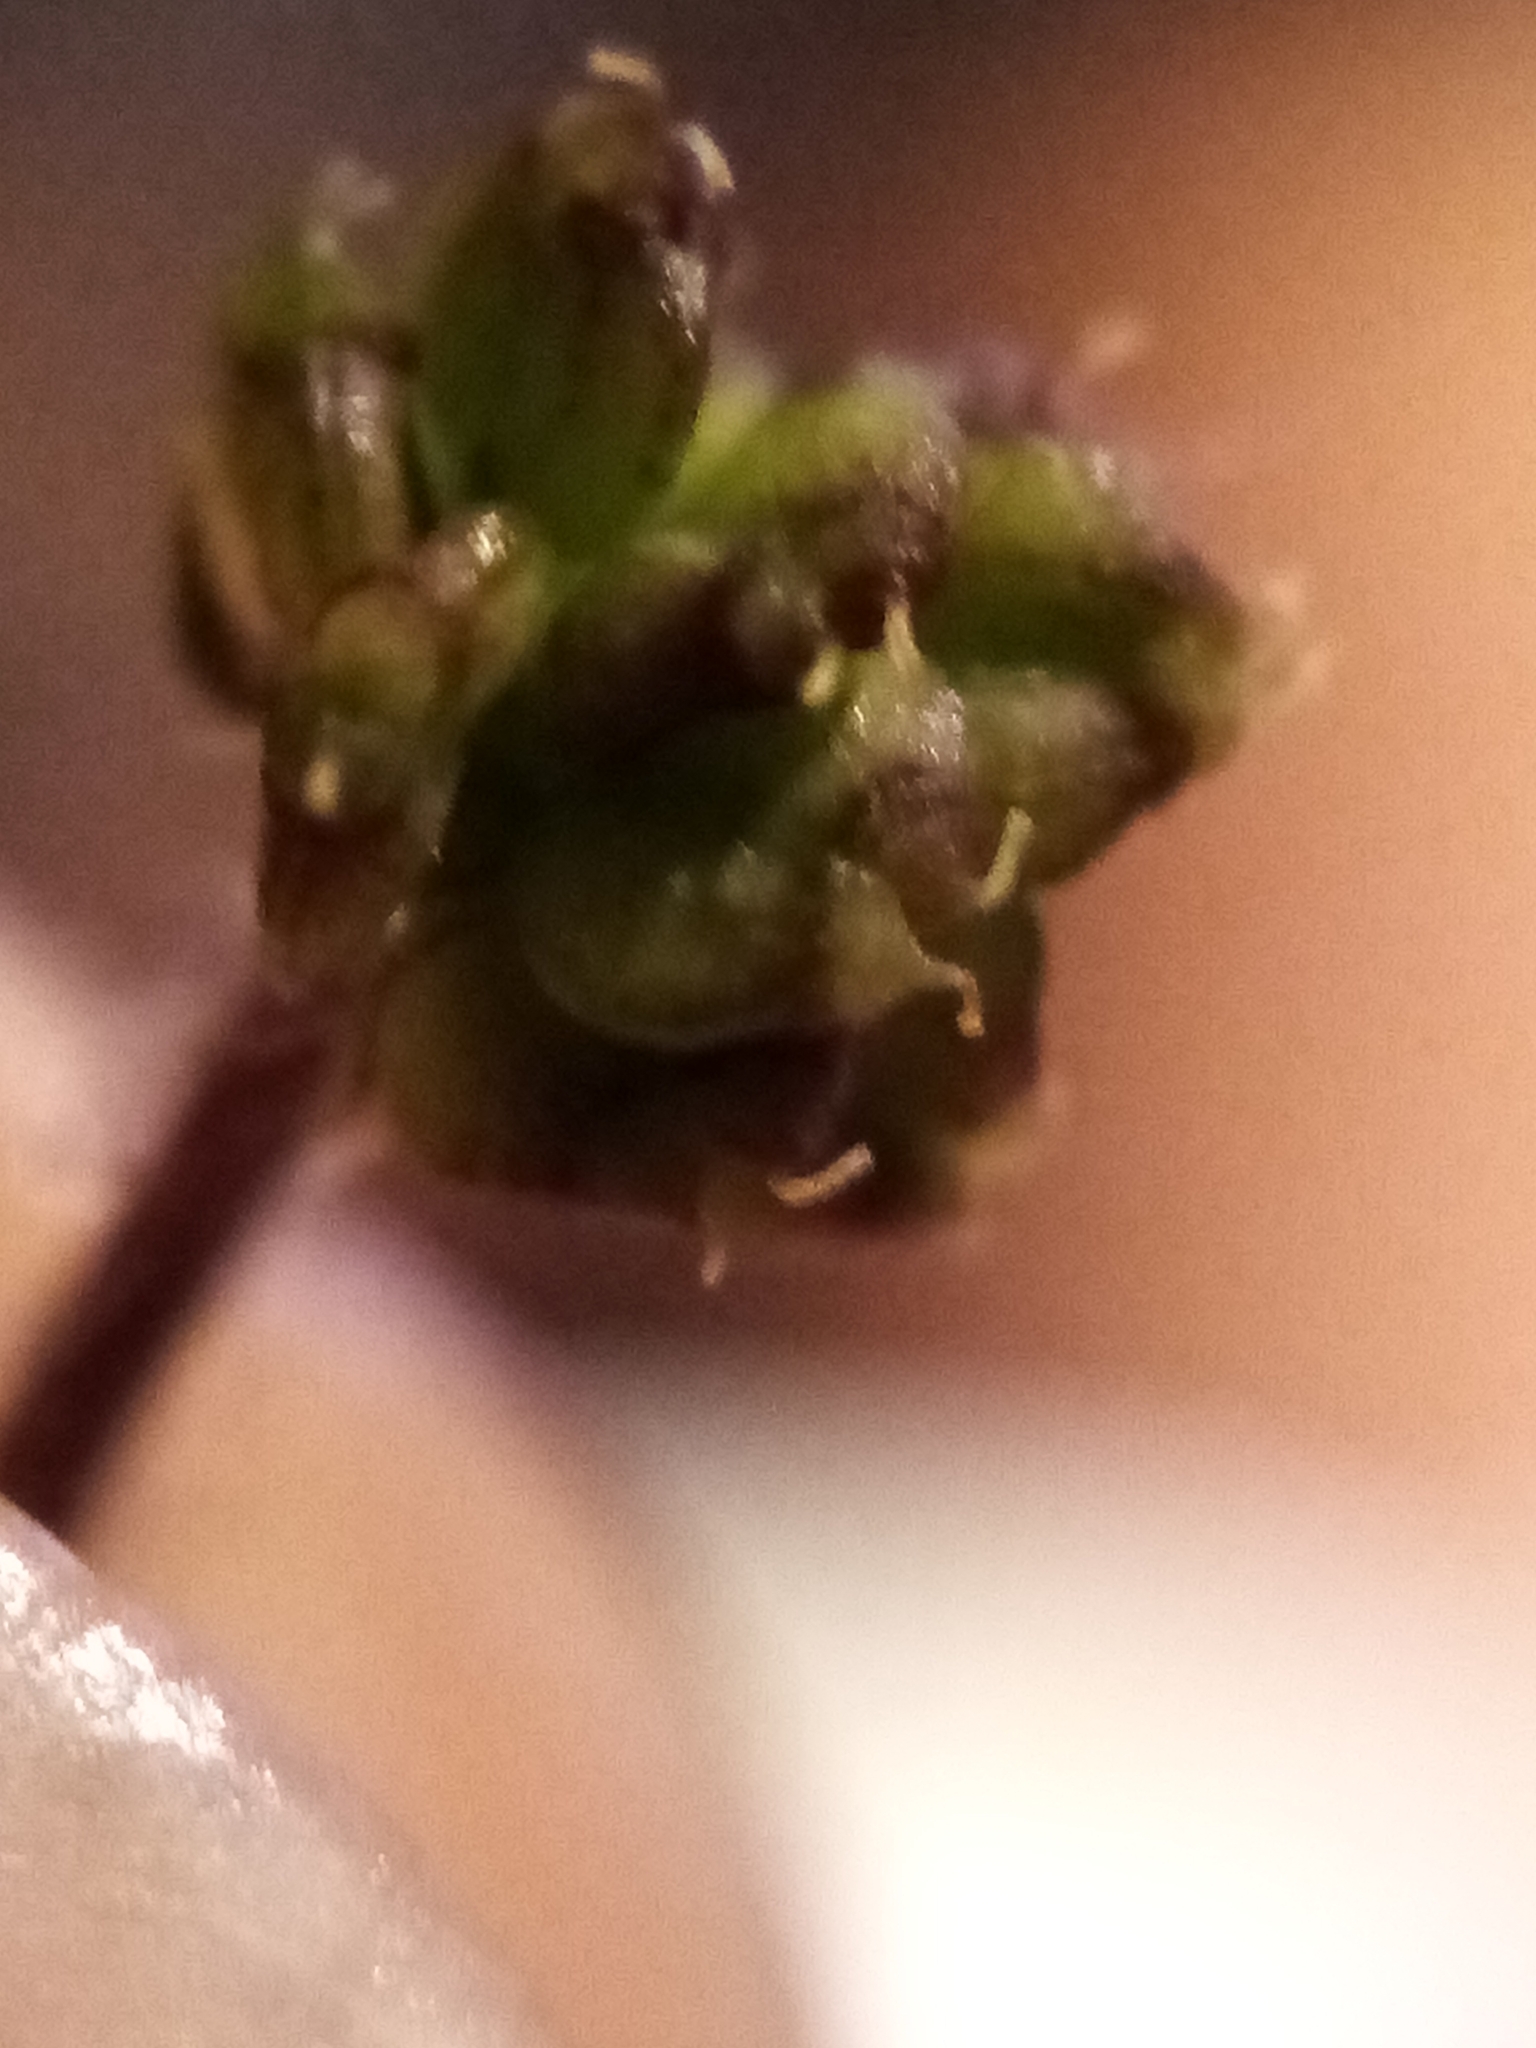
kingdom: Plantae
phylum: Tracheophyta
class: Magnoliopsida
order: Apiales
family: Araliaceae
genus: Hydrocotyle
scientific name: Hydrocotyle novae-zeelandiae
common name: New zealand pennywort
